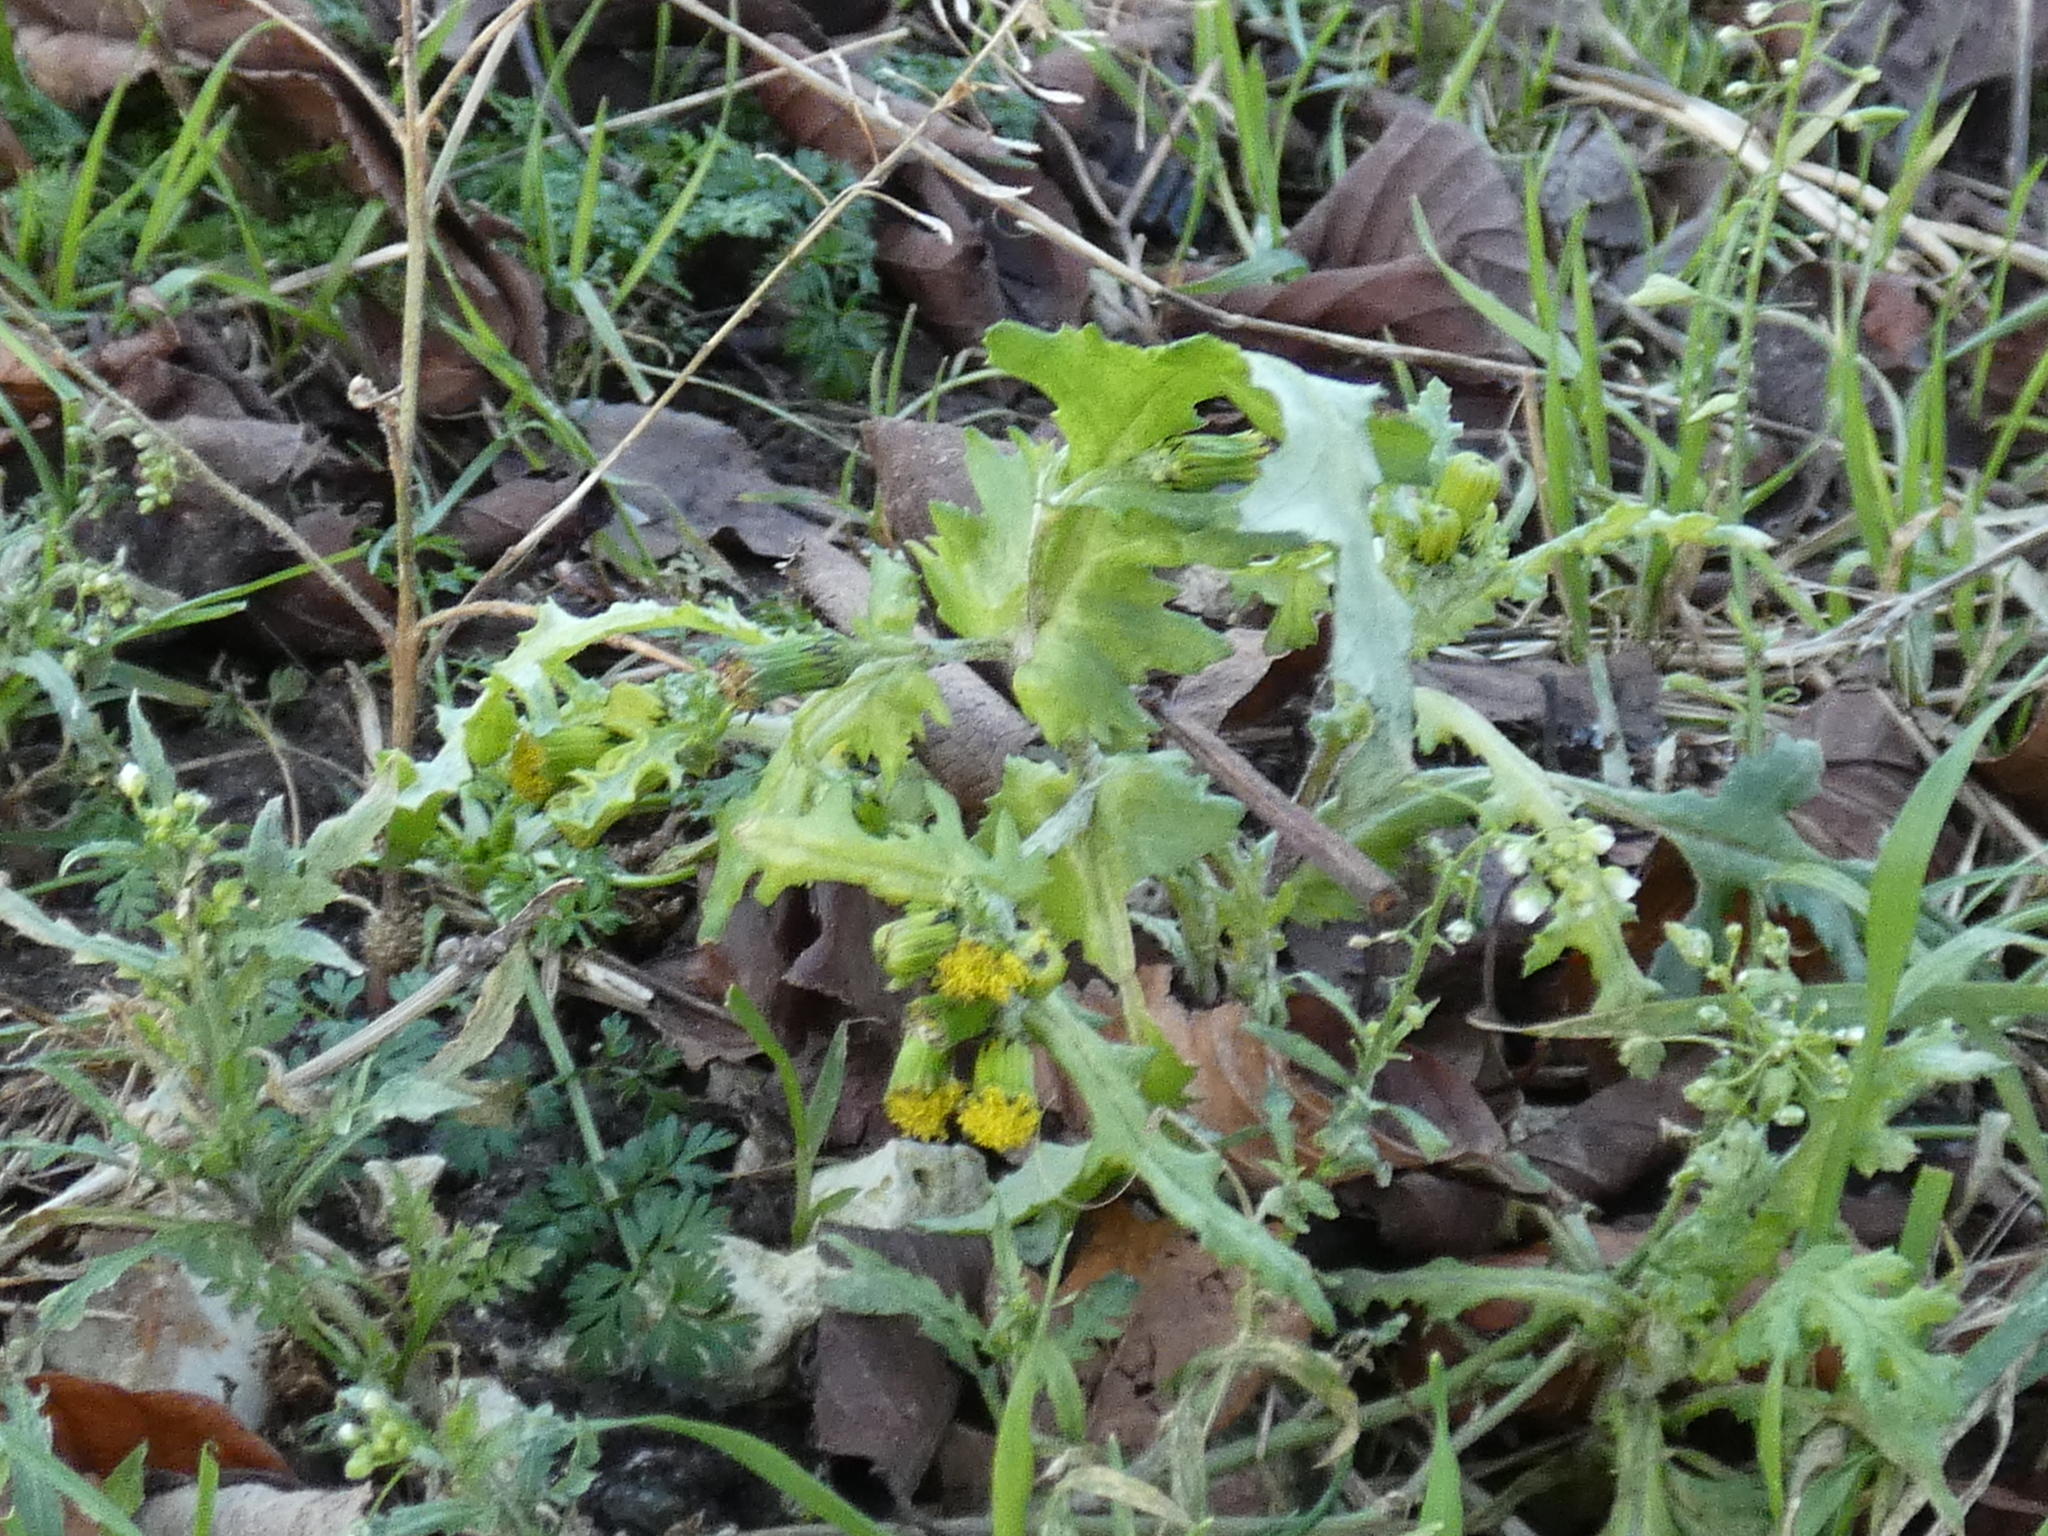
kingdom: Plantae
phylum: Tracheophyta
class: Magnoliopsida
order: Asterales
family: Asteraceae
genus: Senecio
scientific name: Senecio vulgaris
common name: Old-man-in-the-spring
